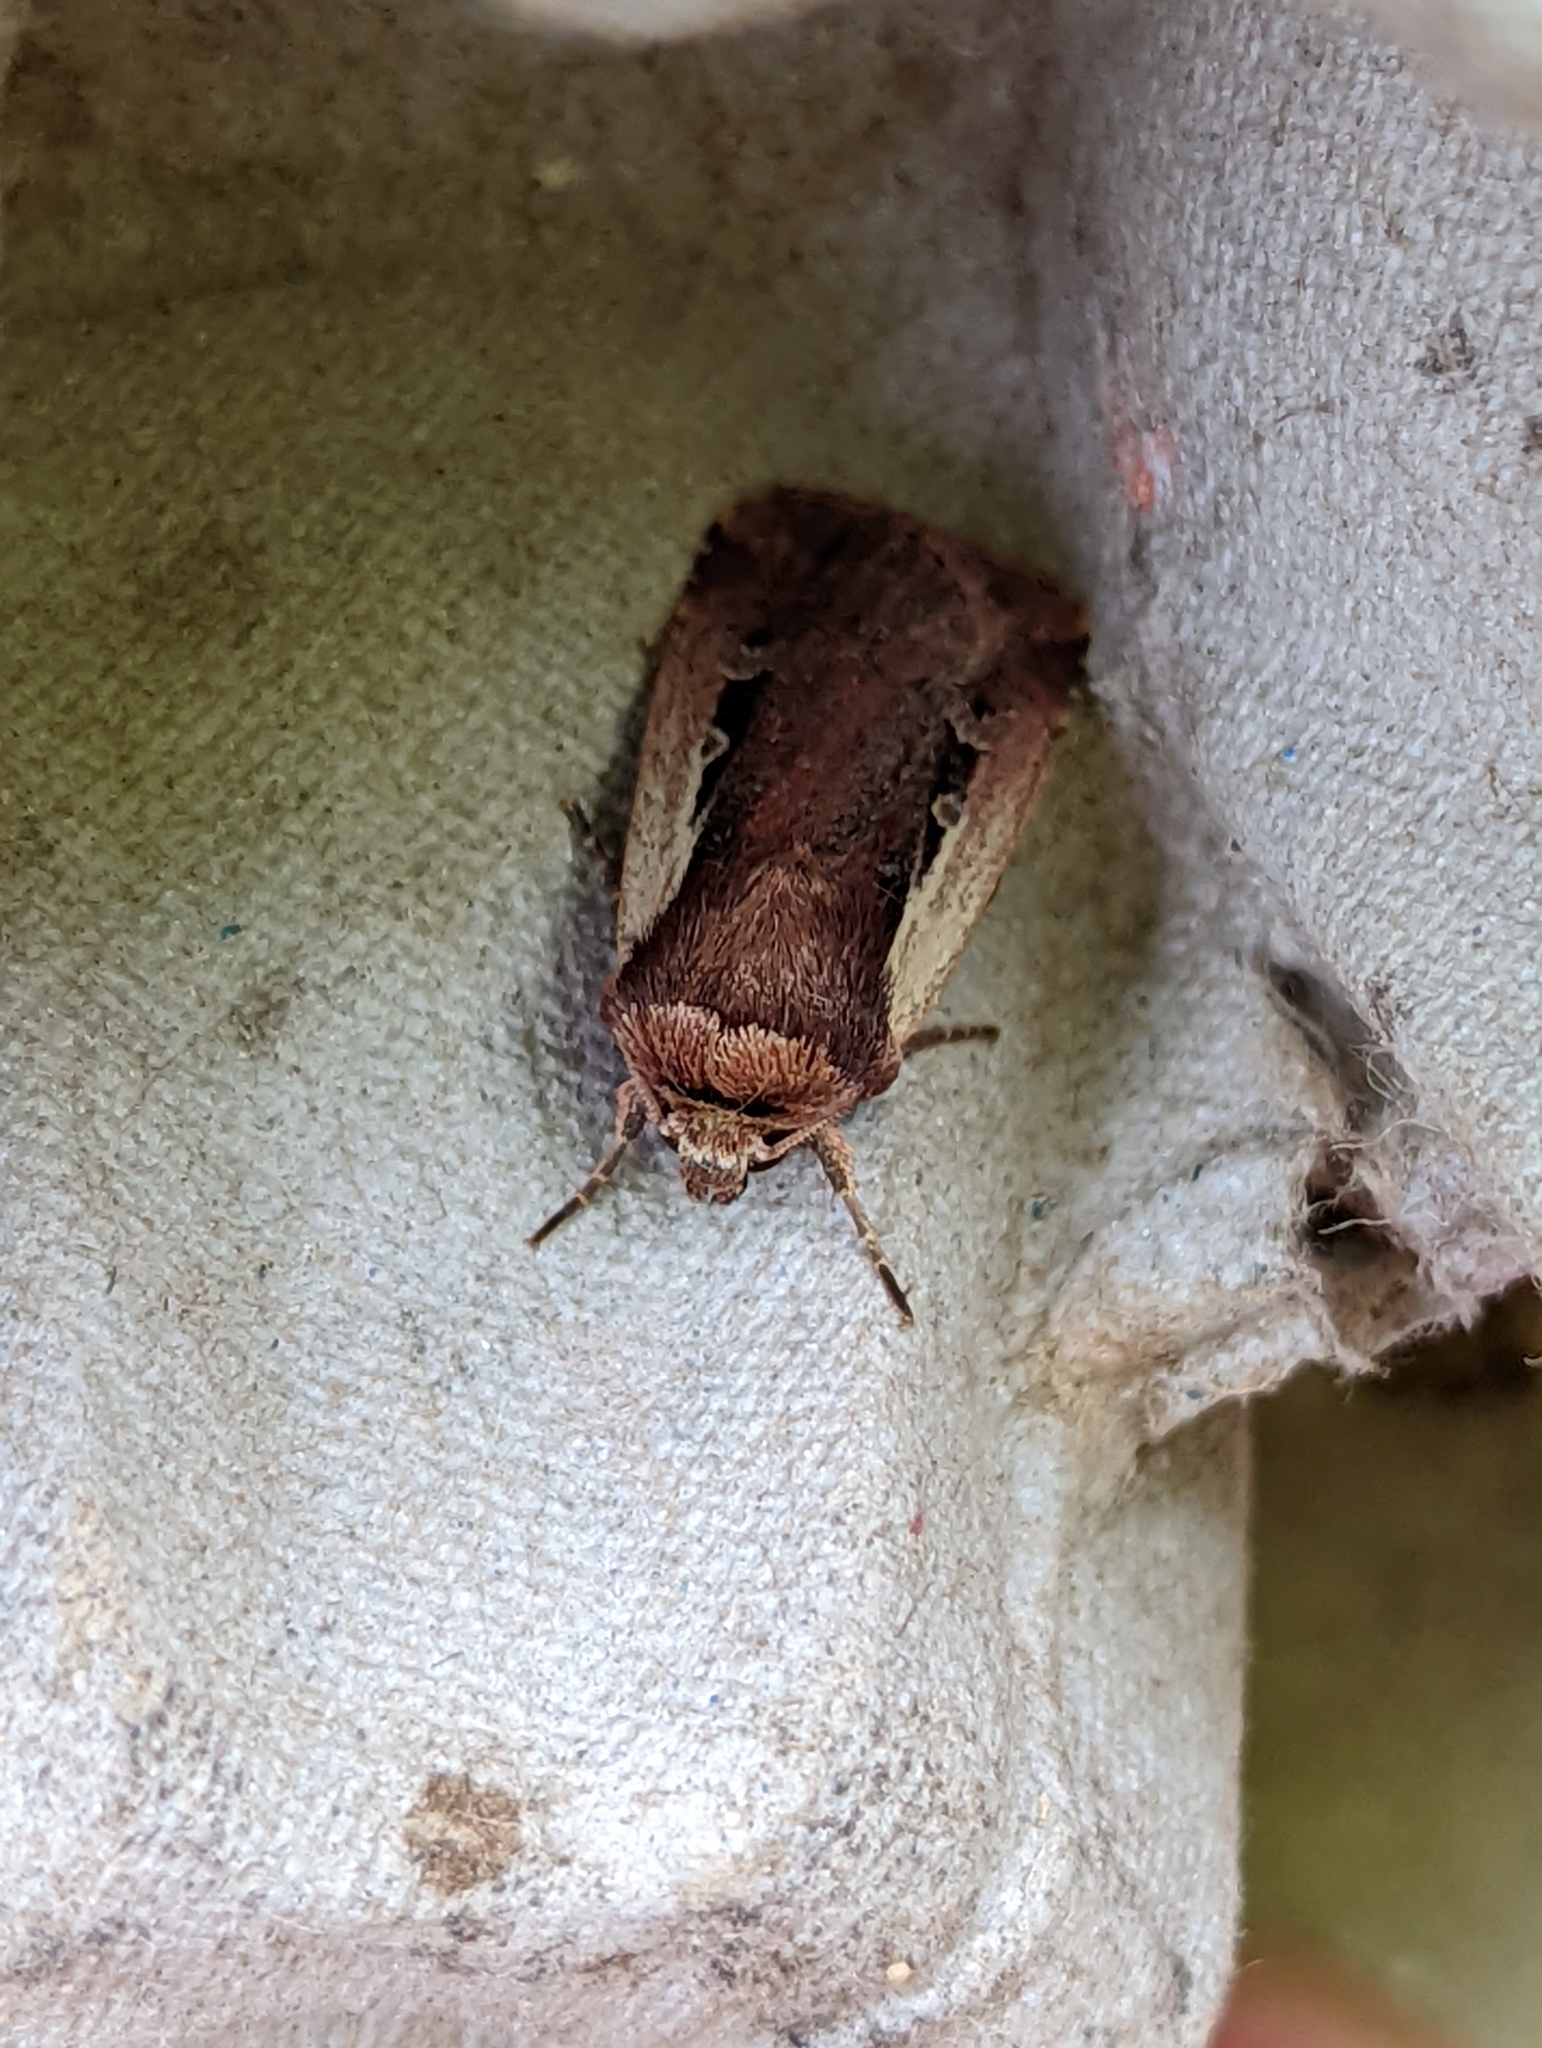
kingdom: Animalia
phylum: Arthropoda
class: Insecta
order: Lepidoptera
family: Noctuidae
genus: Ochropleura
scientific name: Ochropleura plecta
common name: Flame shoulder
